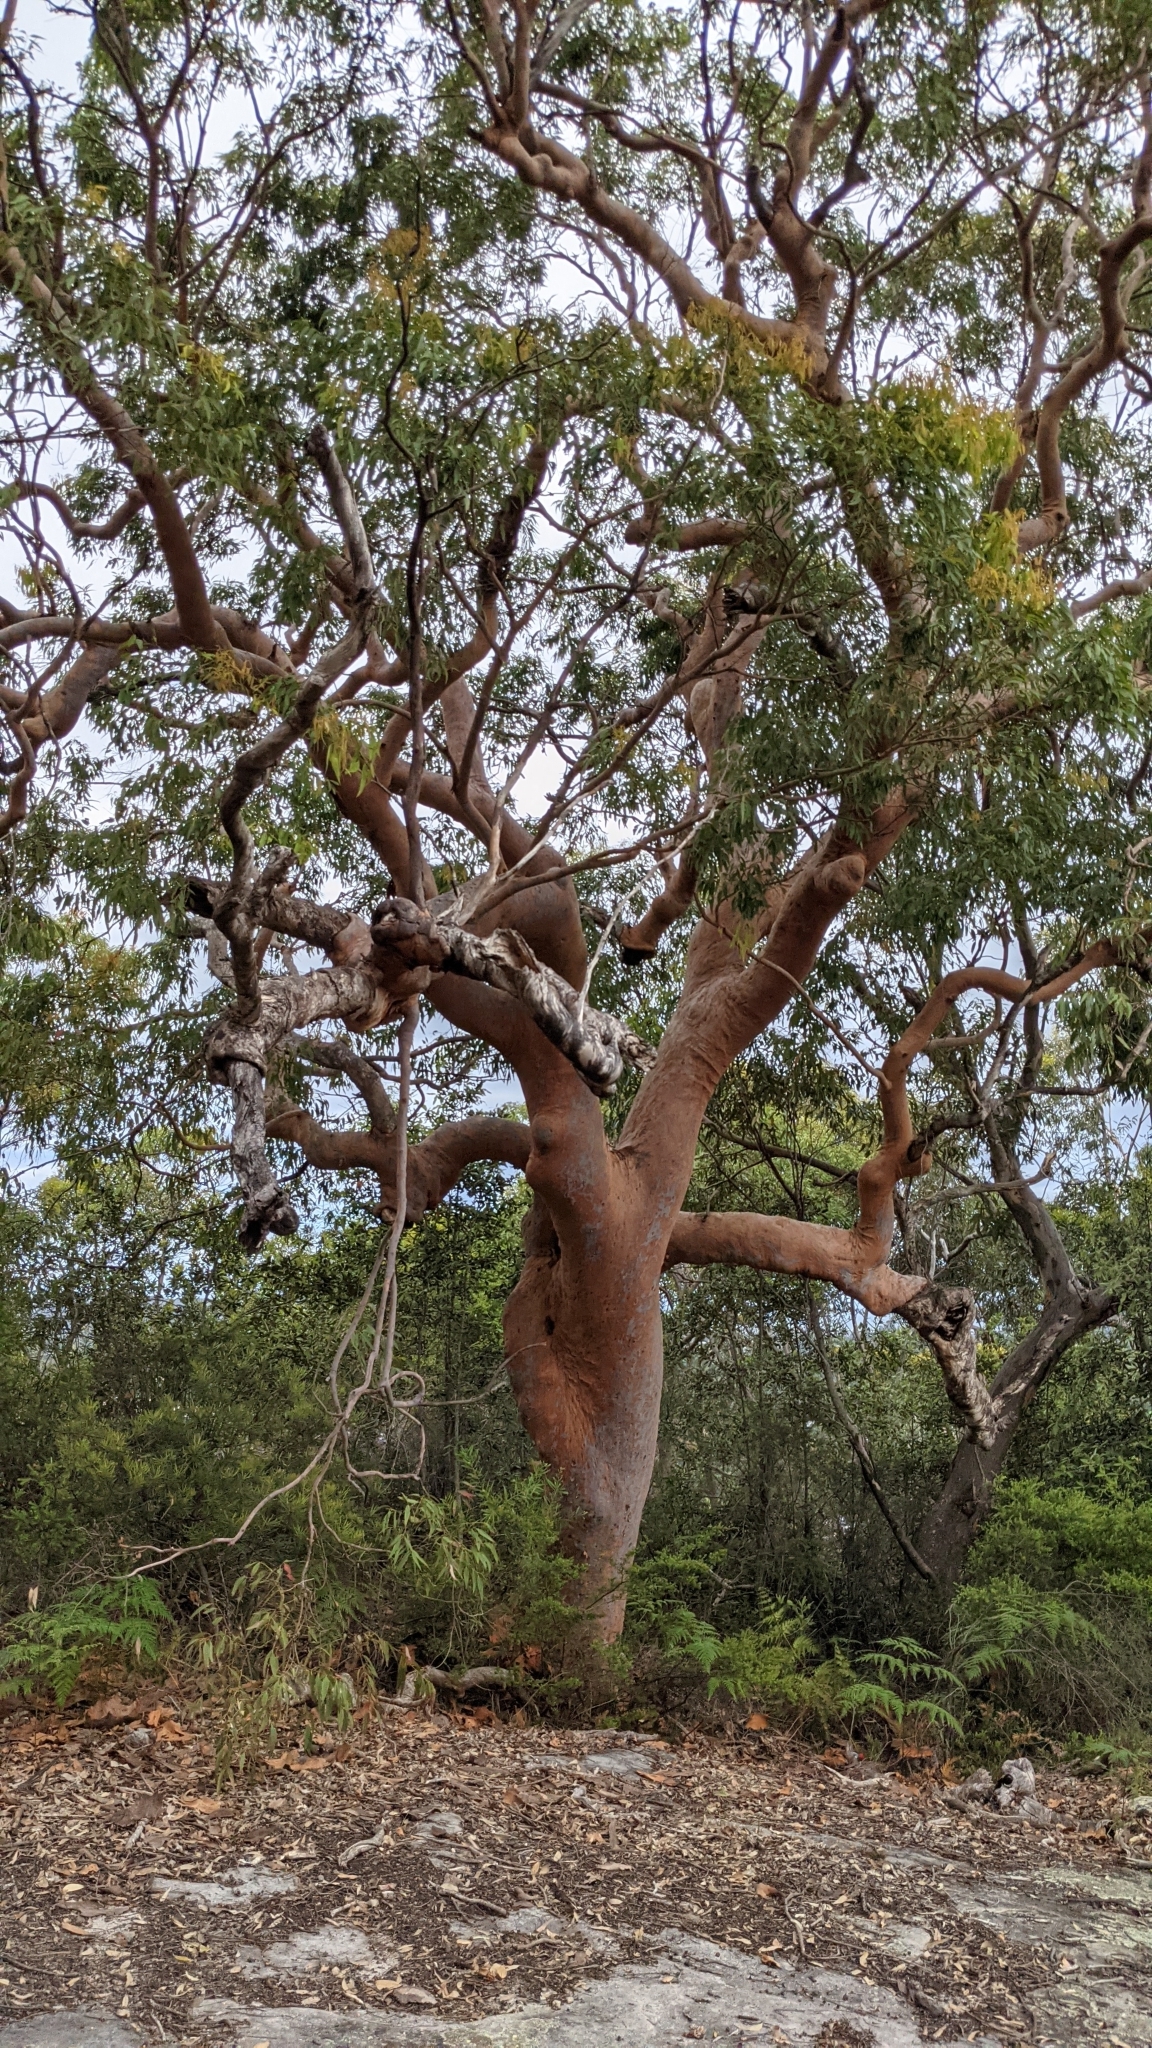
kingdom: Plantae
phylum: Tracheophyta
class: Magnoliopsida
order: Myrtales
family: Myrtaceae
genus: Angophora
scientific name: Angophora costata
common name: Gum myrtle
